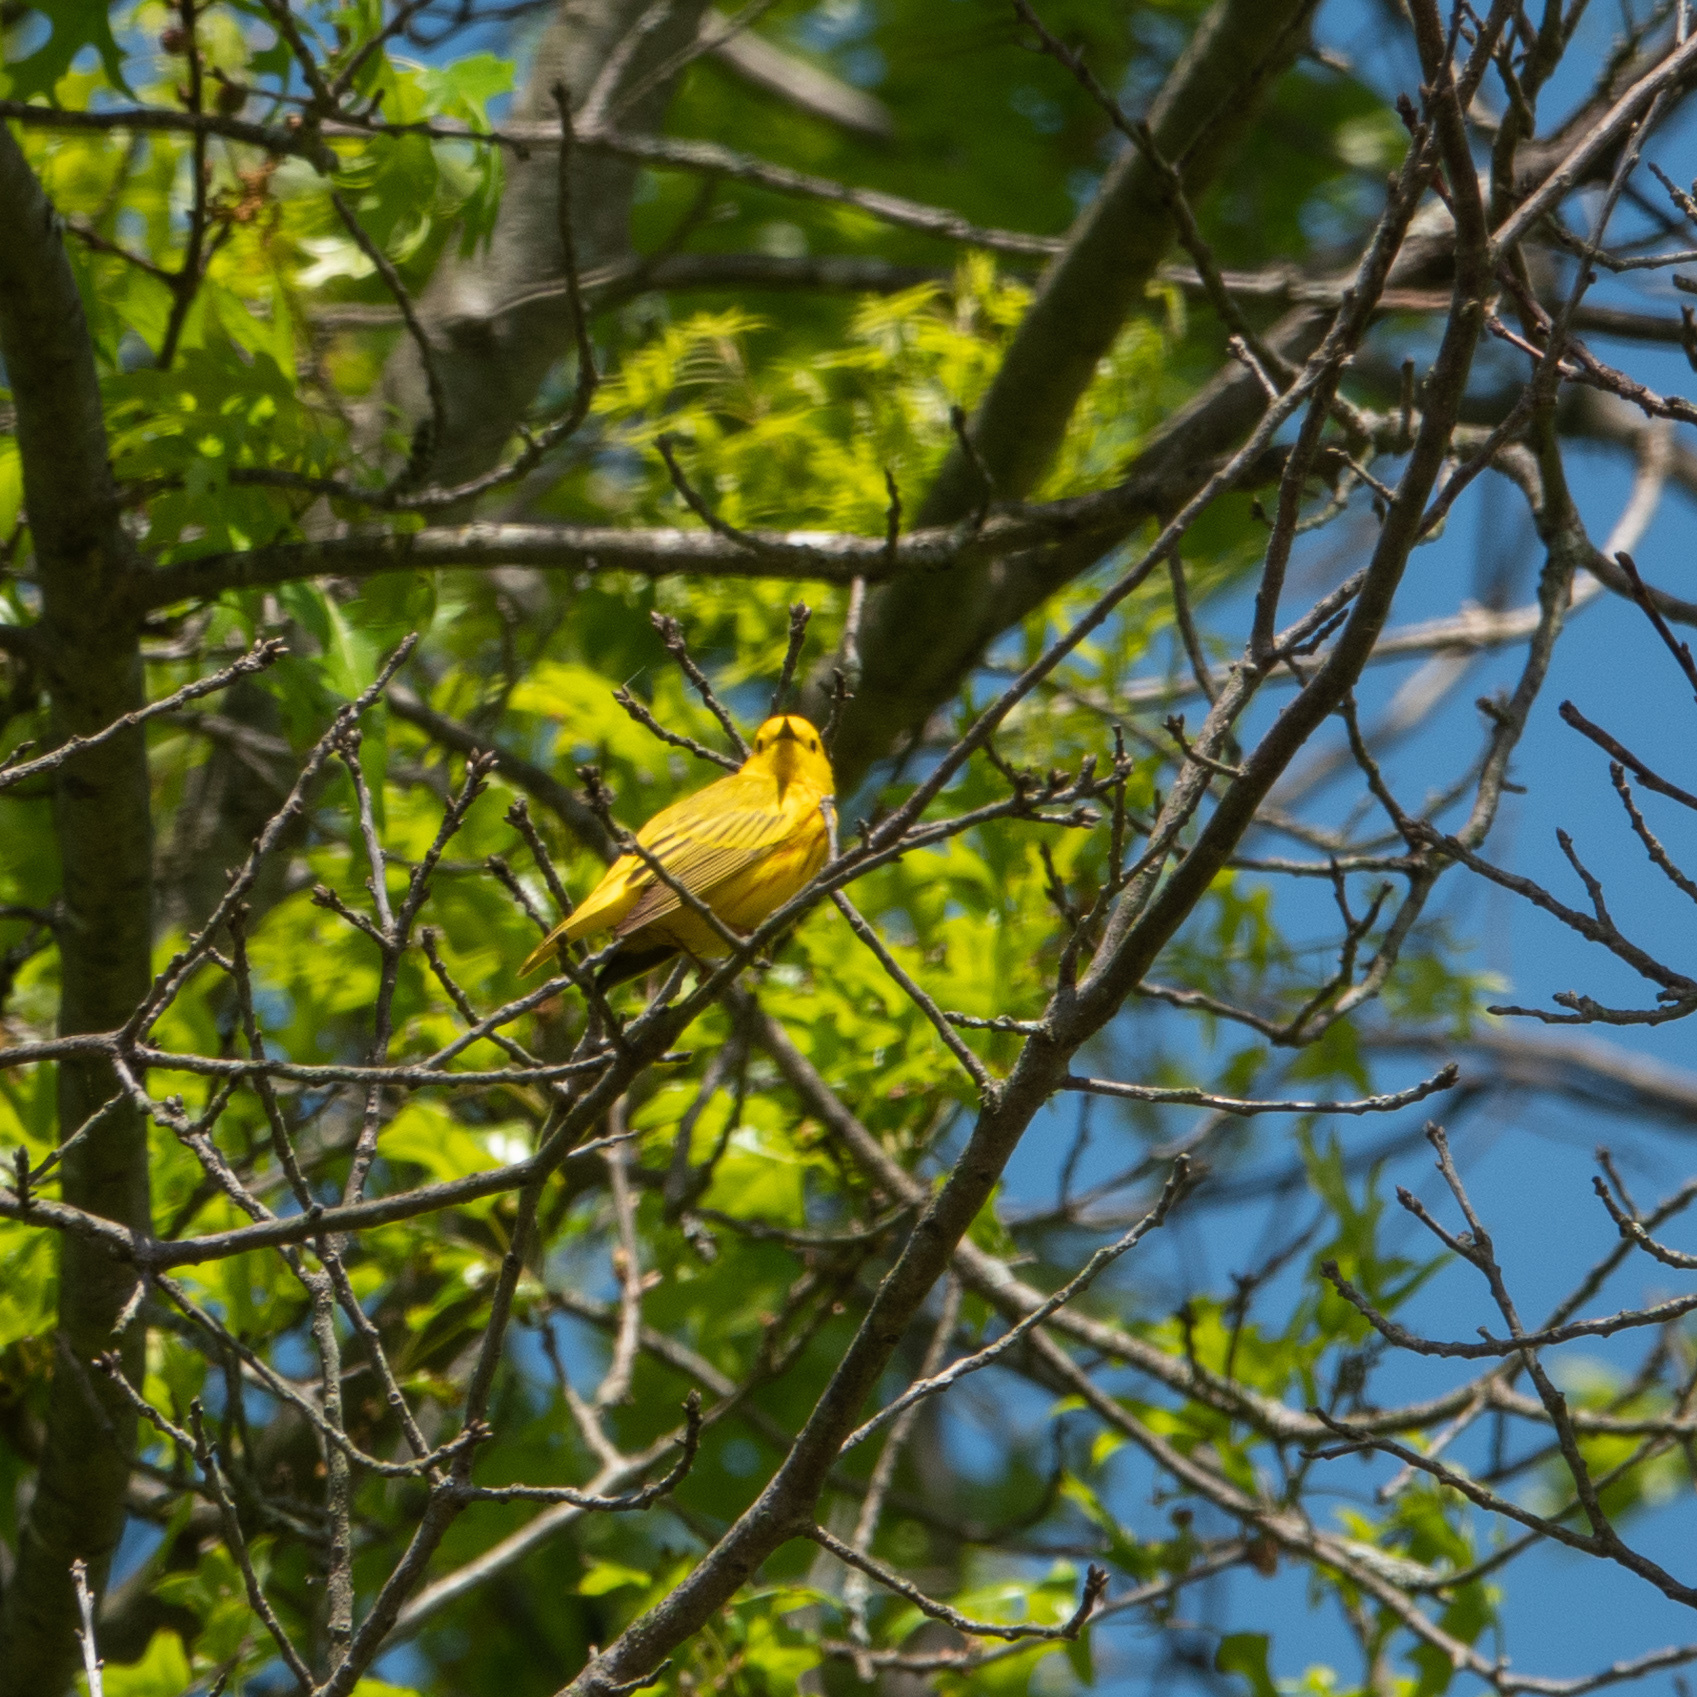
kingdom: Animalia
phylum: Chordata
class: Aves
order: Passeriformes
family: Parulidae
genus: Setophaga
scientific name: Setophaga petechia
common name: Yellow warbler
